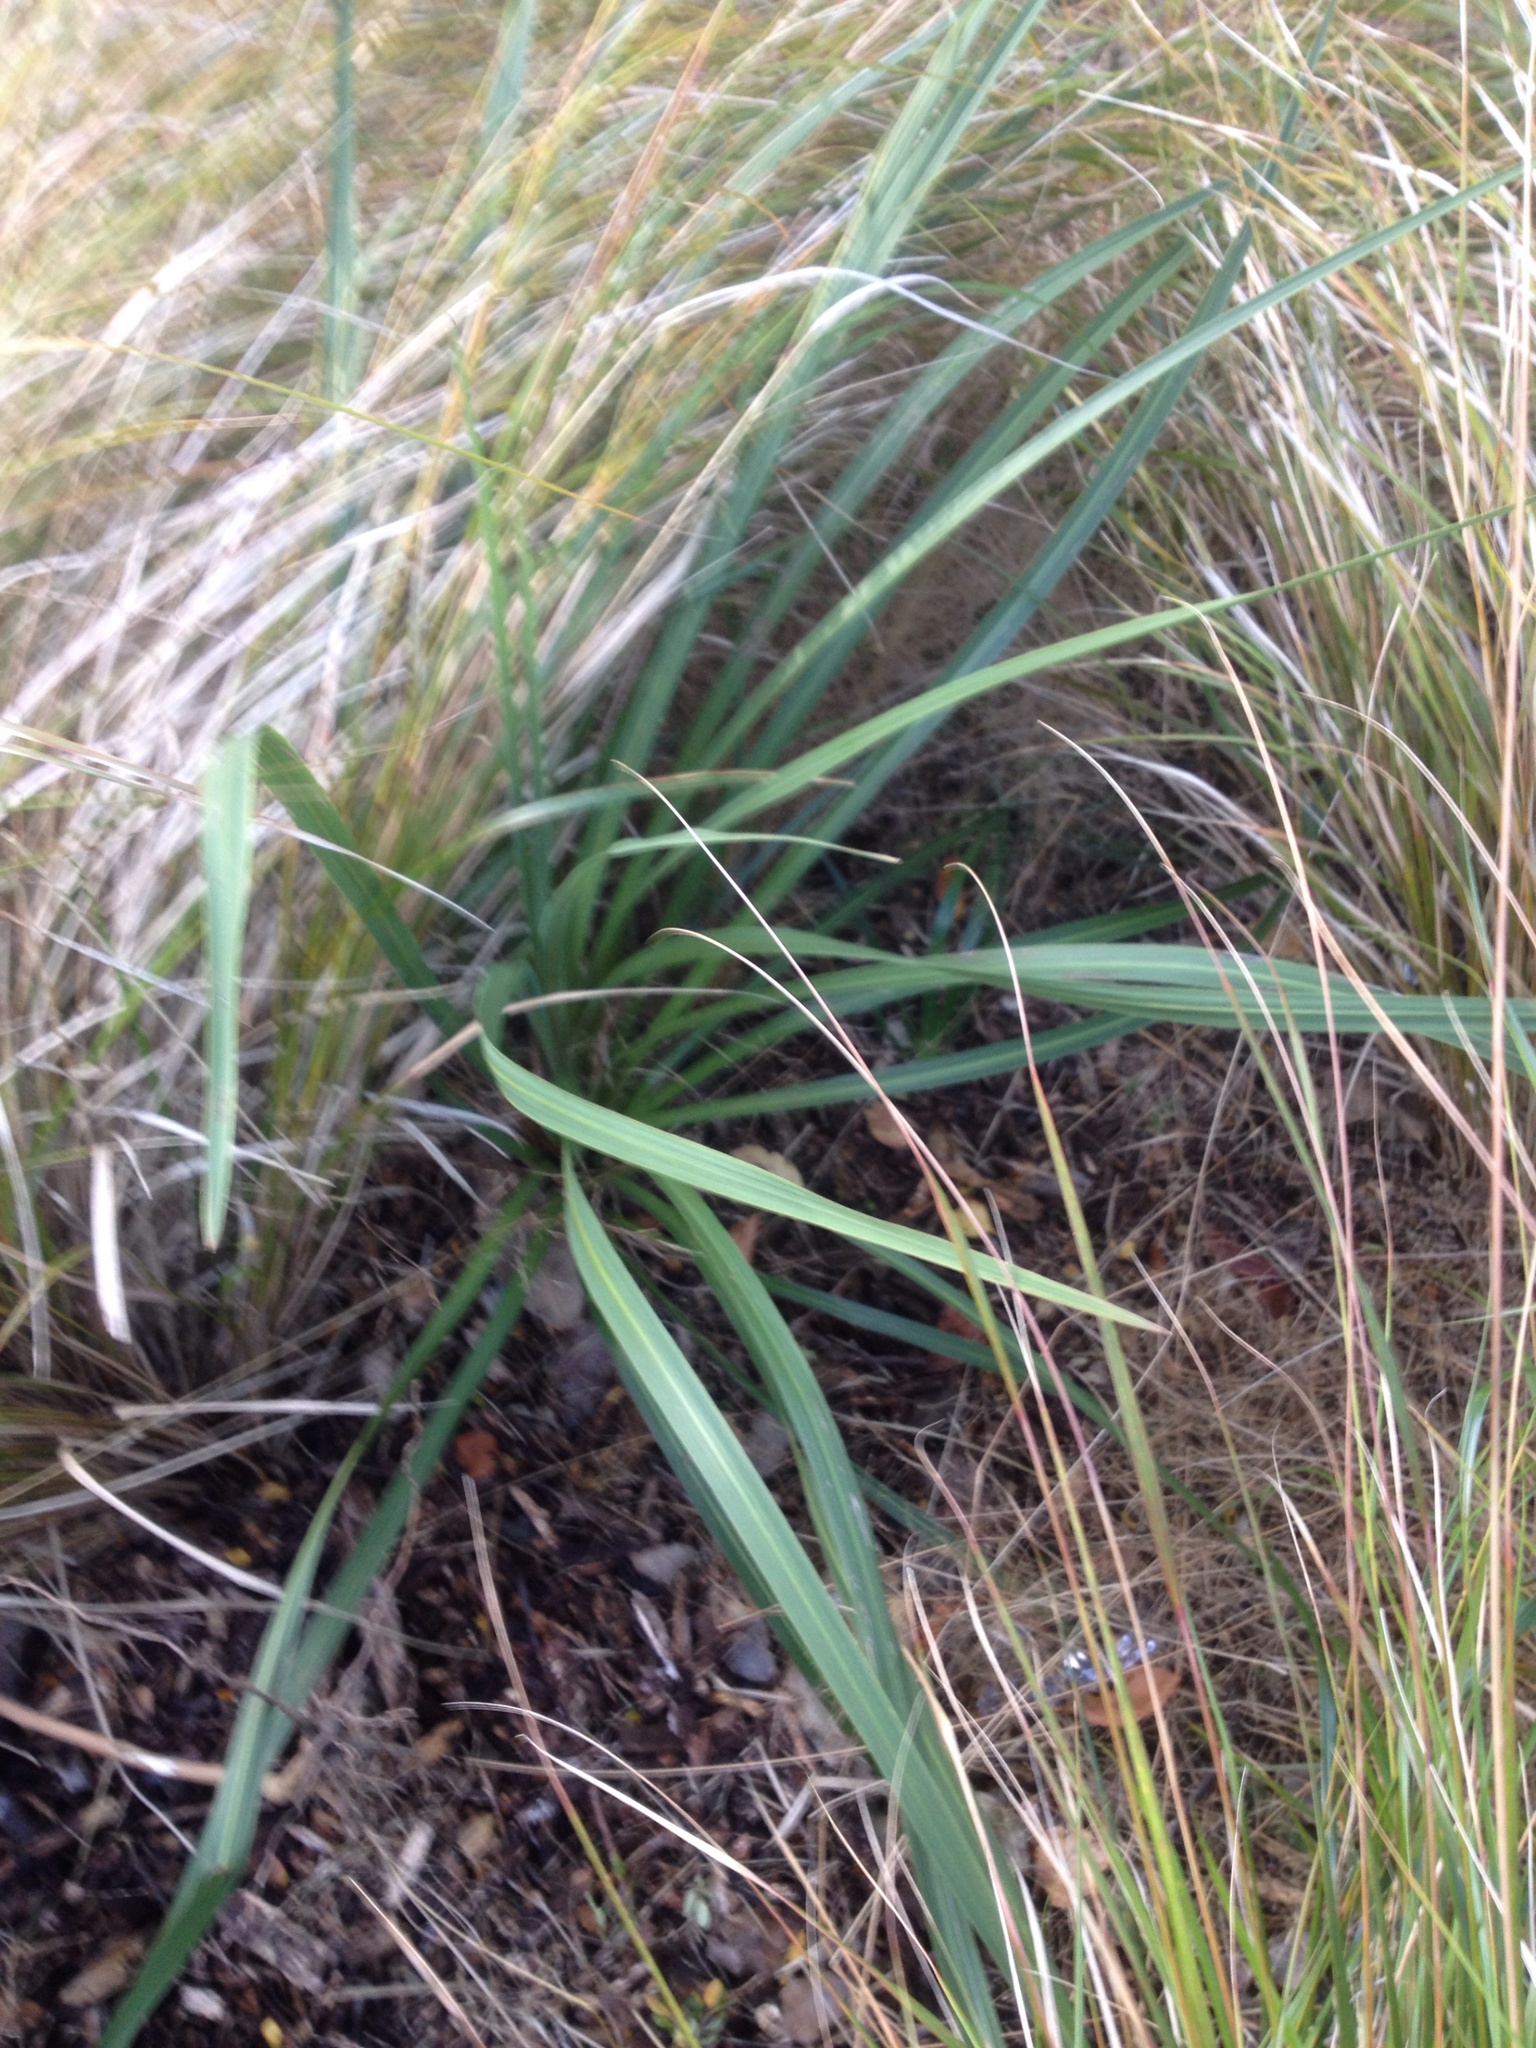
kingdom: Plantae
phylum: Tracheophyta
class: Liliopsida
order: Asparagales
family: Asparagaceae
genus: Cordyline
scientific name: Cordyline australis
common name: Cabbage-palm
